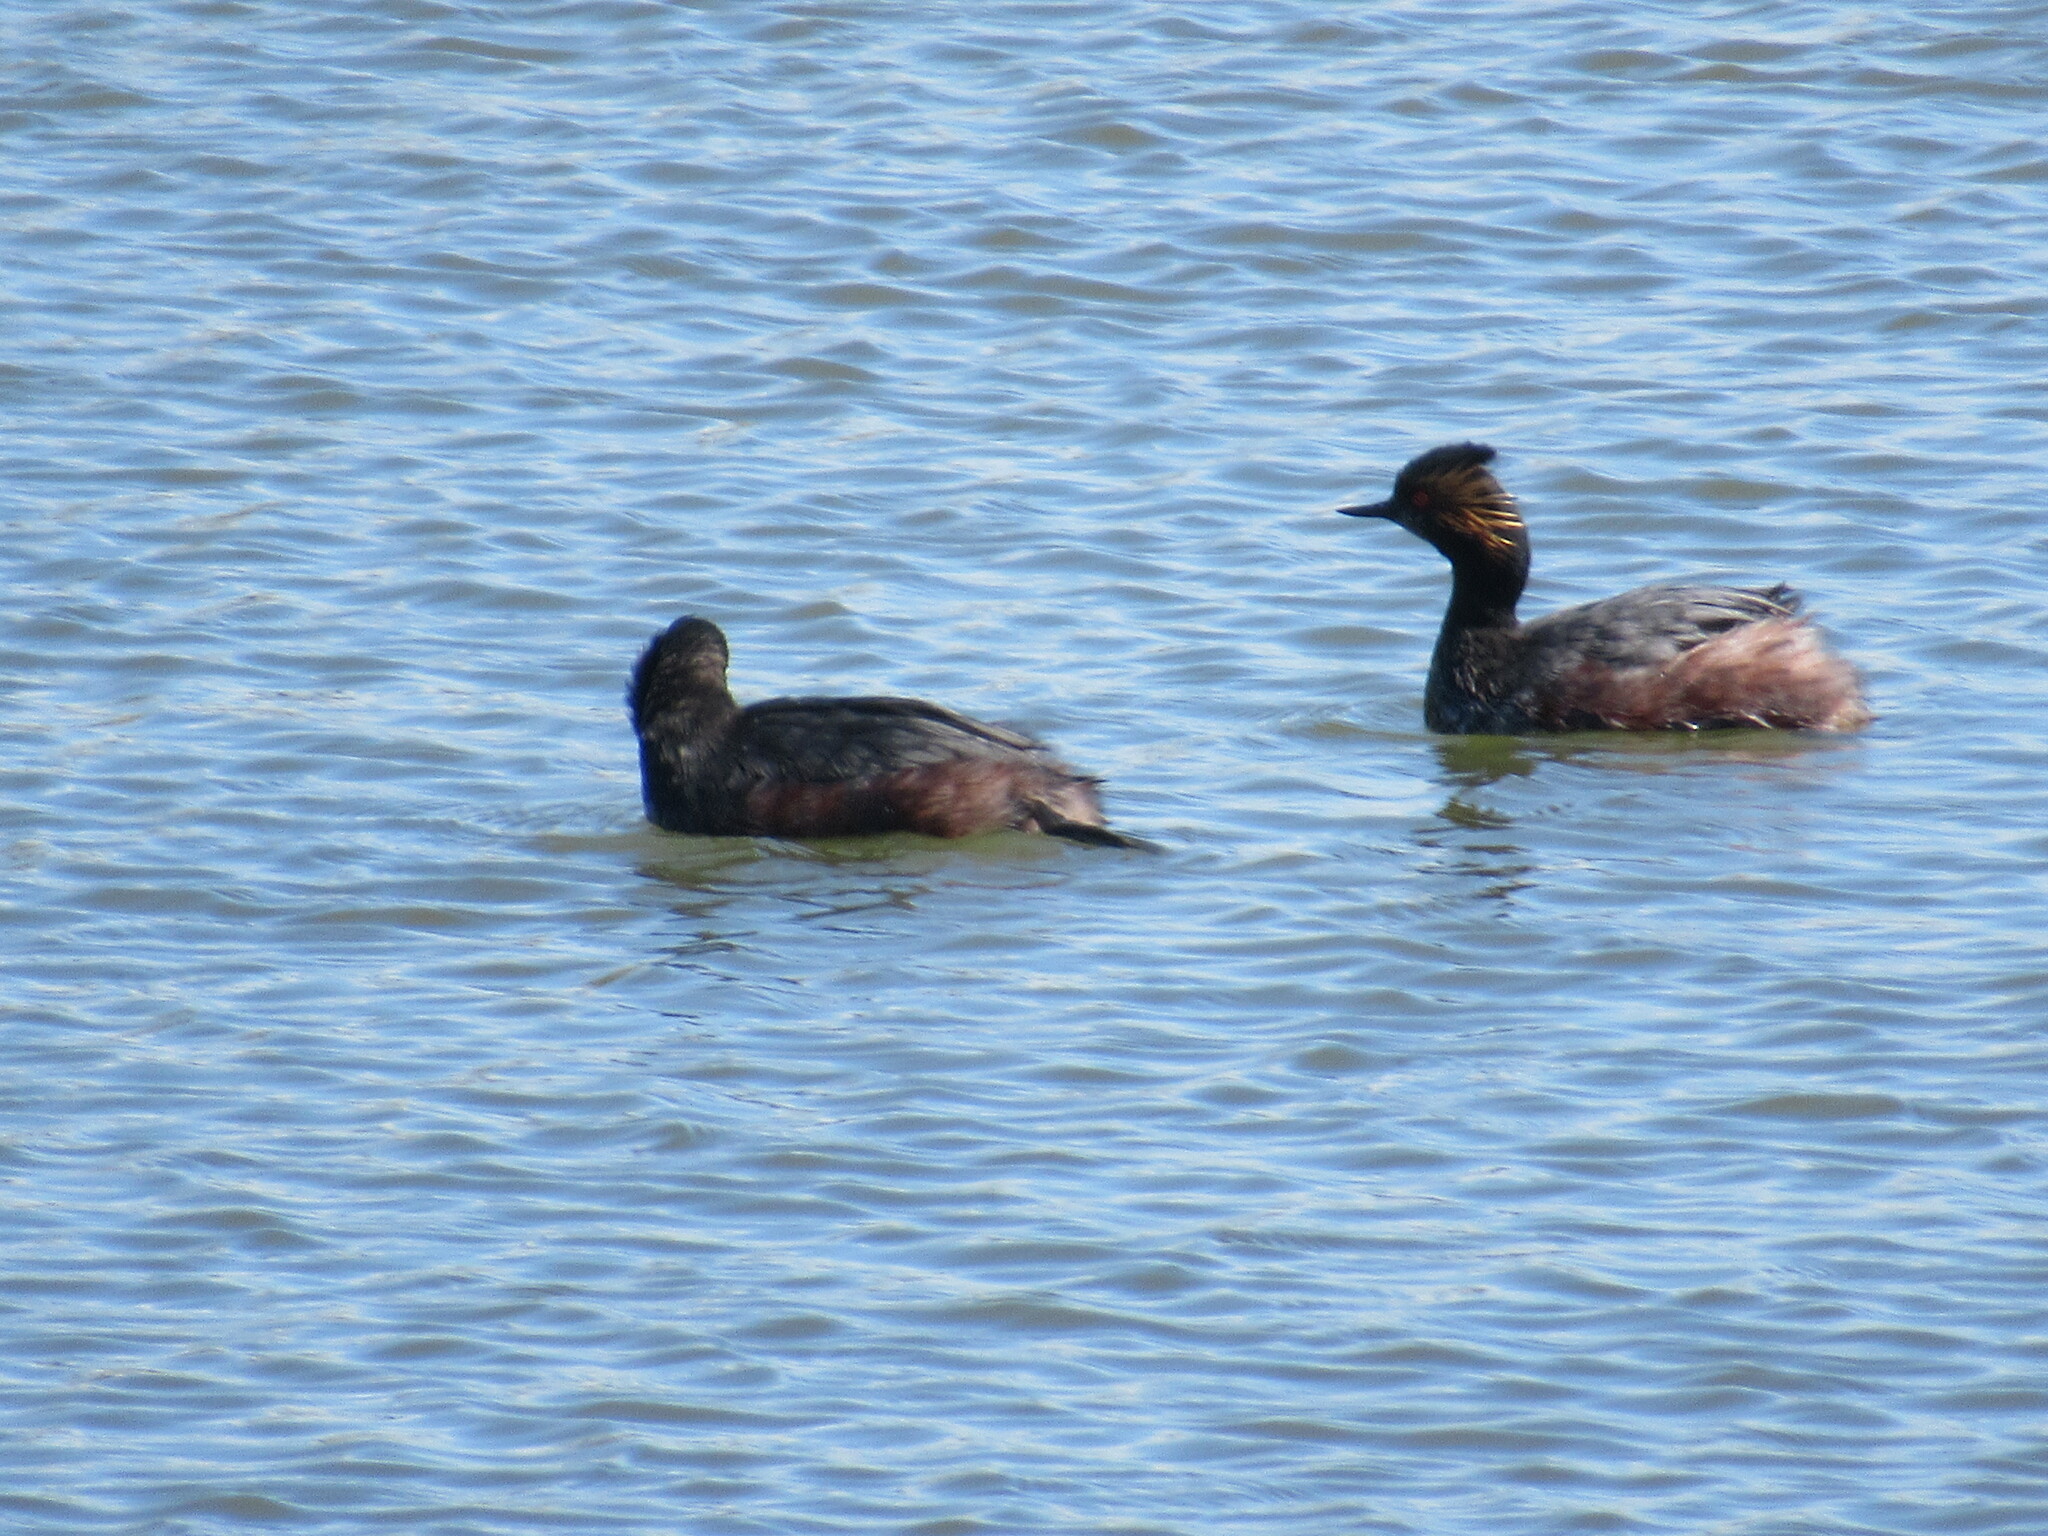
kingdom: Animalia
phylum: Chordata
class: Aves
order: Podicipediformes
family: Podicipedidae
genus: Podiceps
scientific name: Podiceps nigricollis
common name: Black-necked grebe
